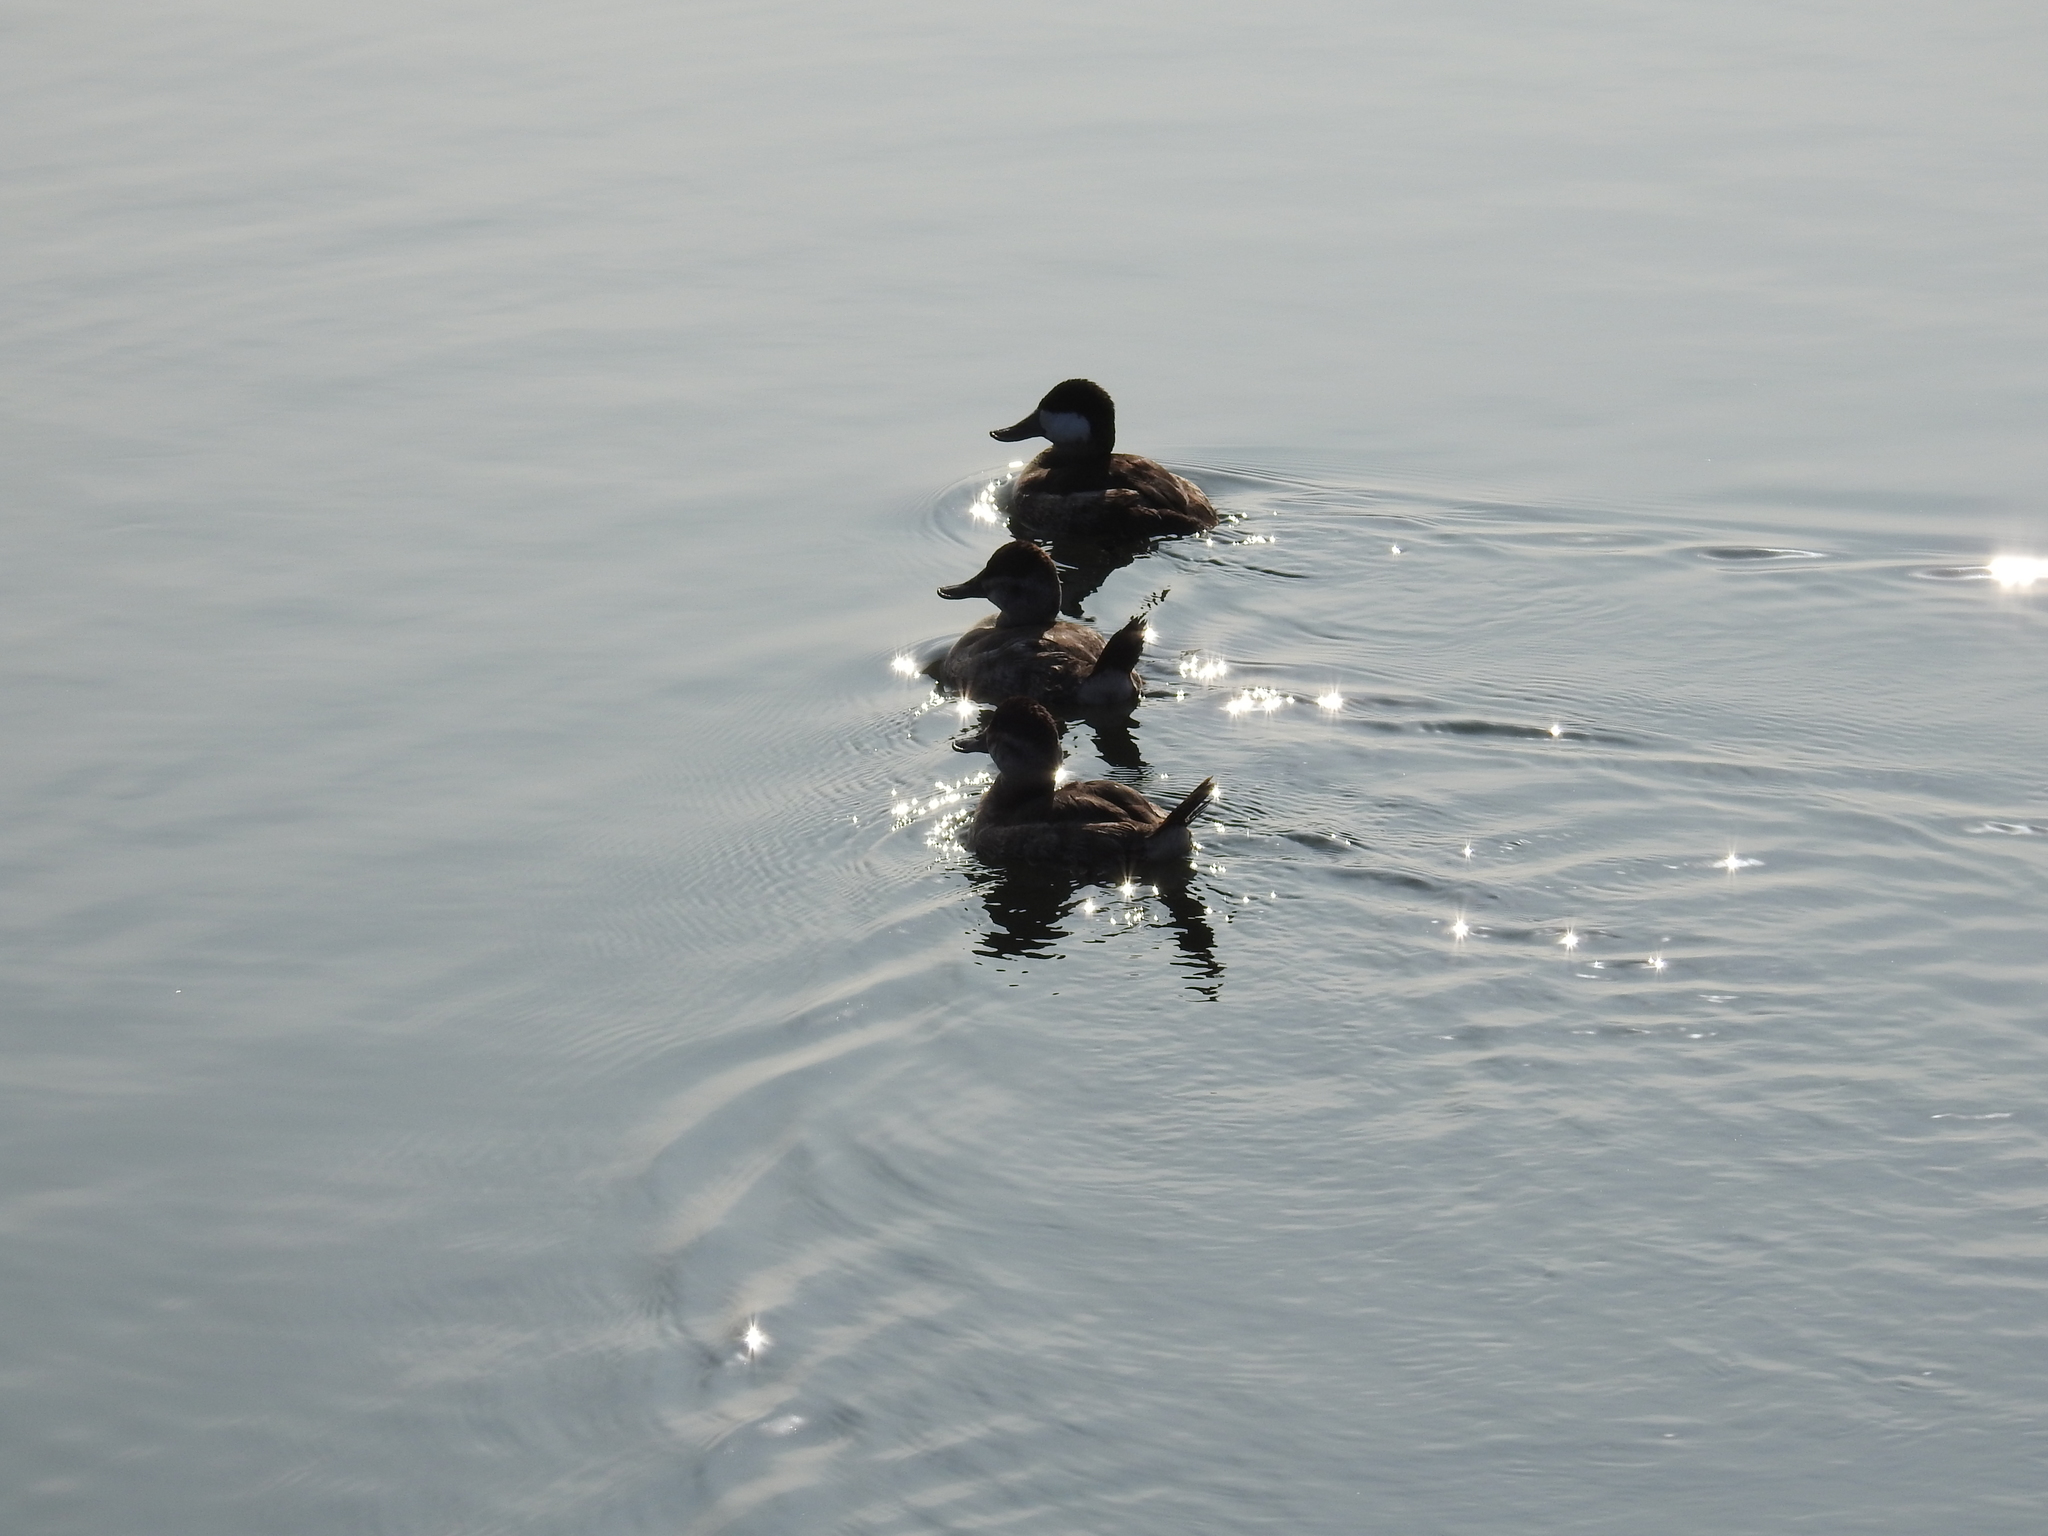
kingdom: Animalia
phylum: Chordata
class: Aves
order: Anseriformes
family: Anatidae
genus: Oxyura
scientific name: Oxyura jamaicensis
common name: Ruddy duck
